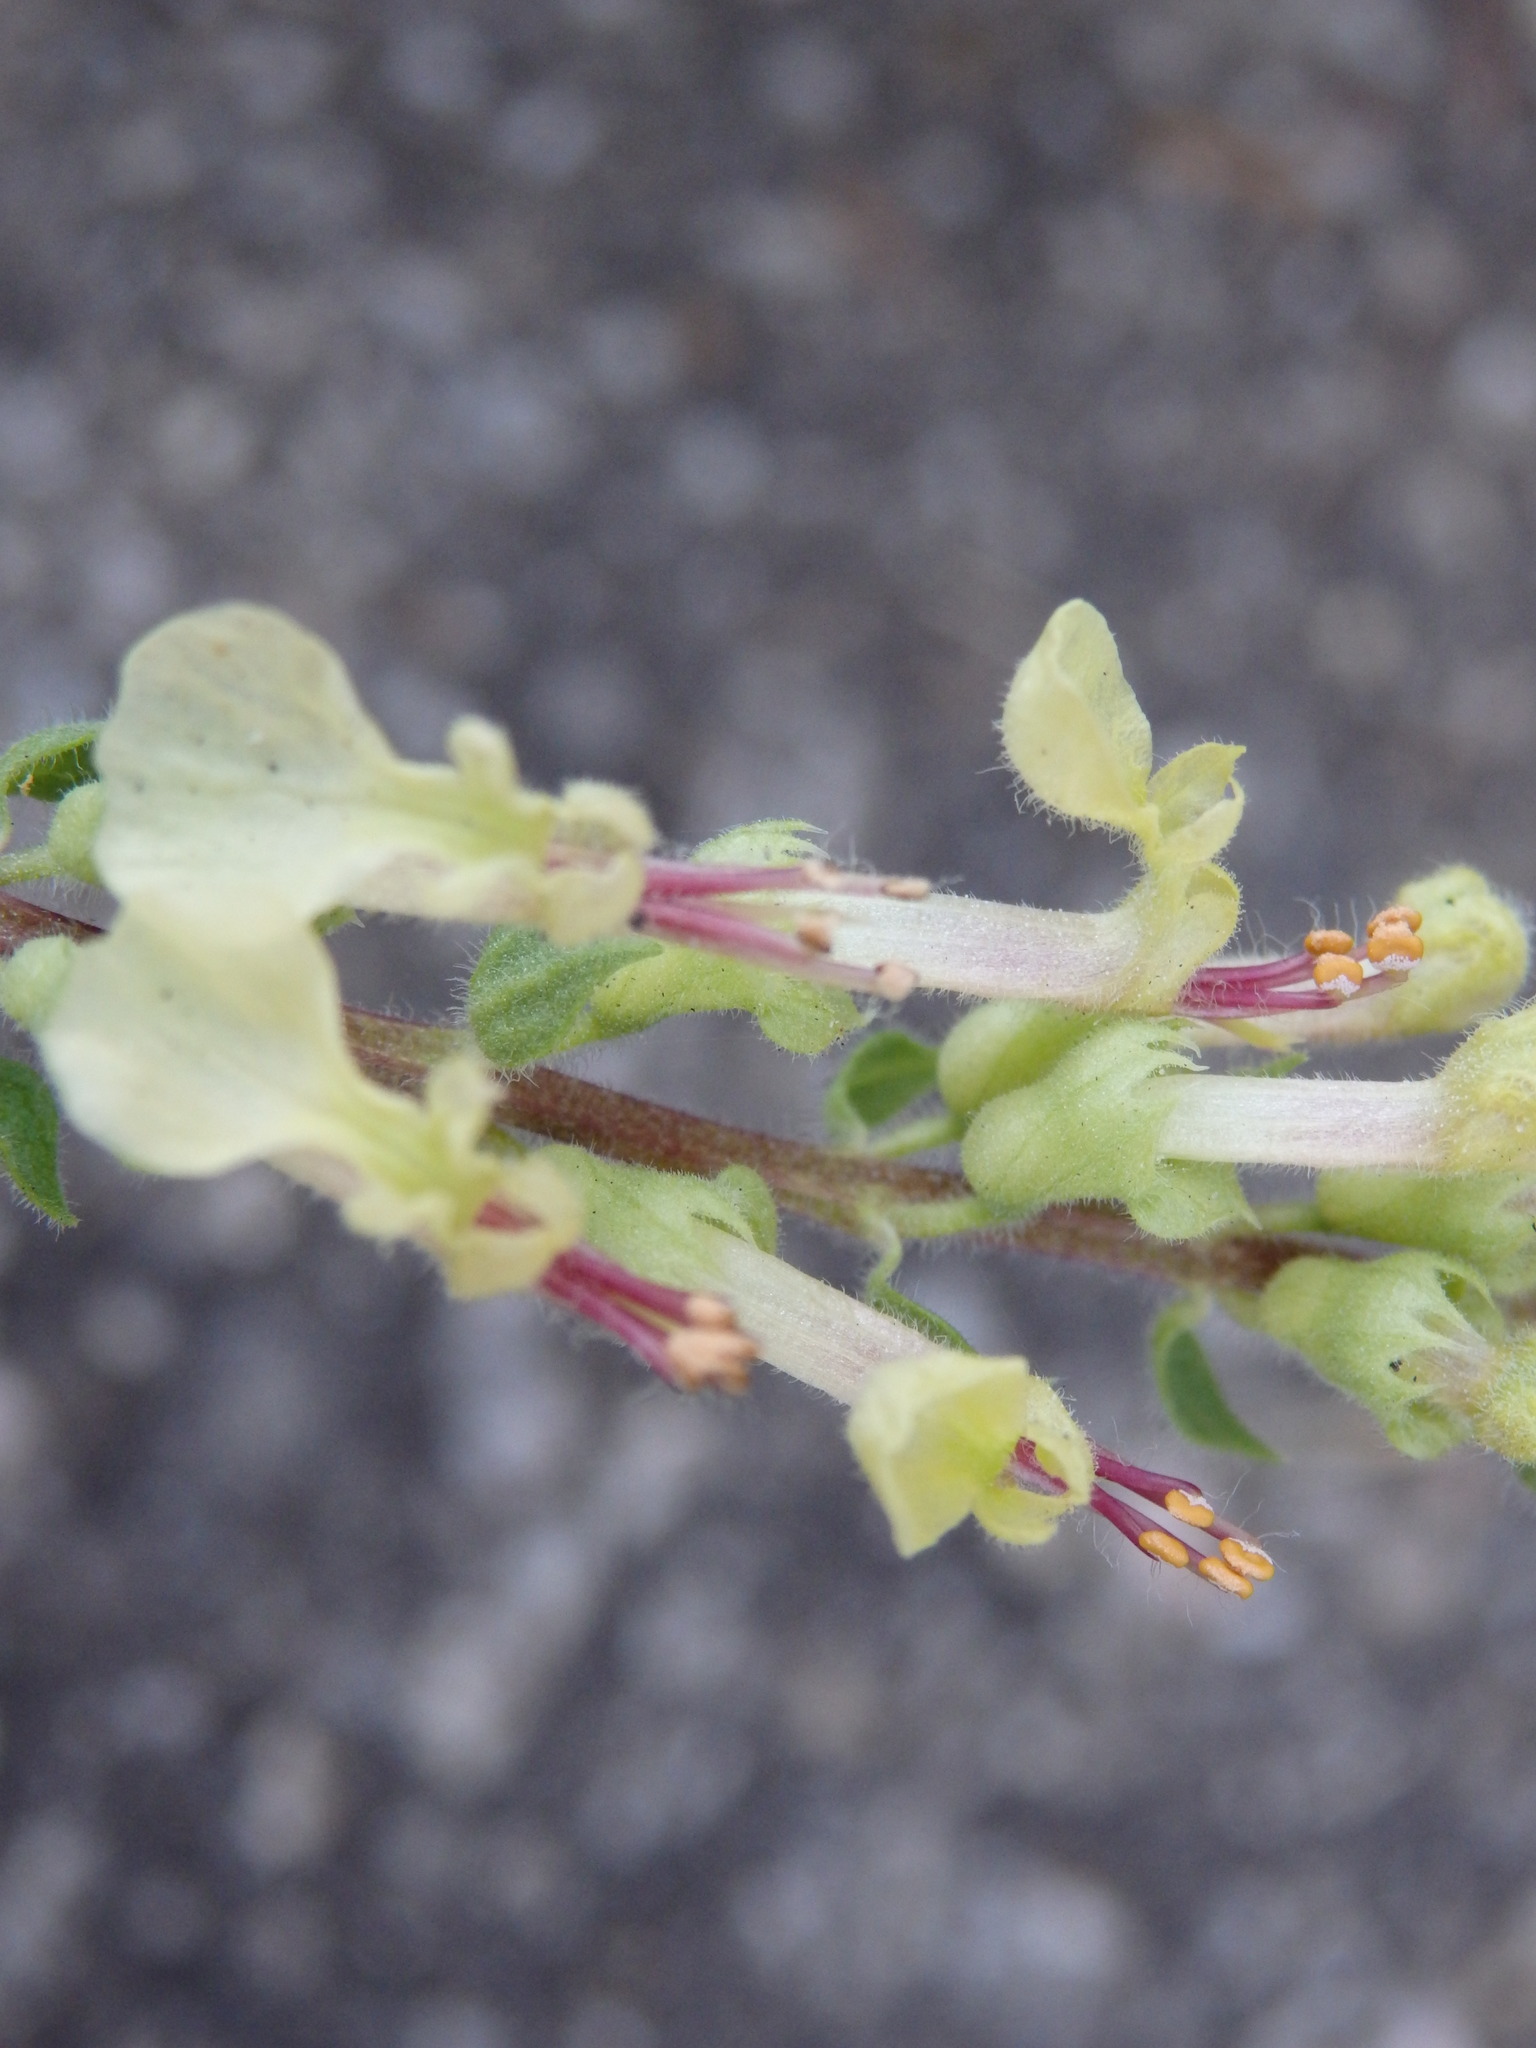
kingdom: Plantae
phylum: Tracheophyta
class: Magnoliopsida
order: Lamiales
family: Lamiaceae
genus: Teucrium
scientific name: Teucrium scorodonia
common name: Woodland germander
